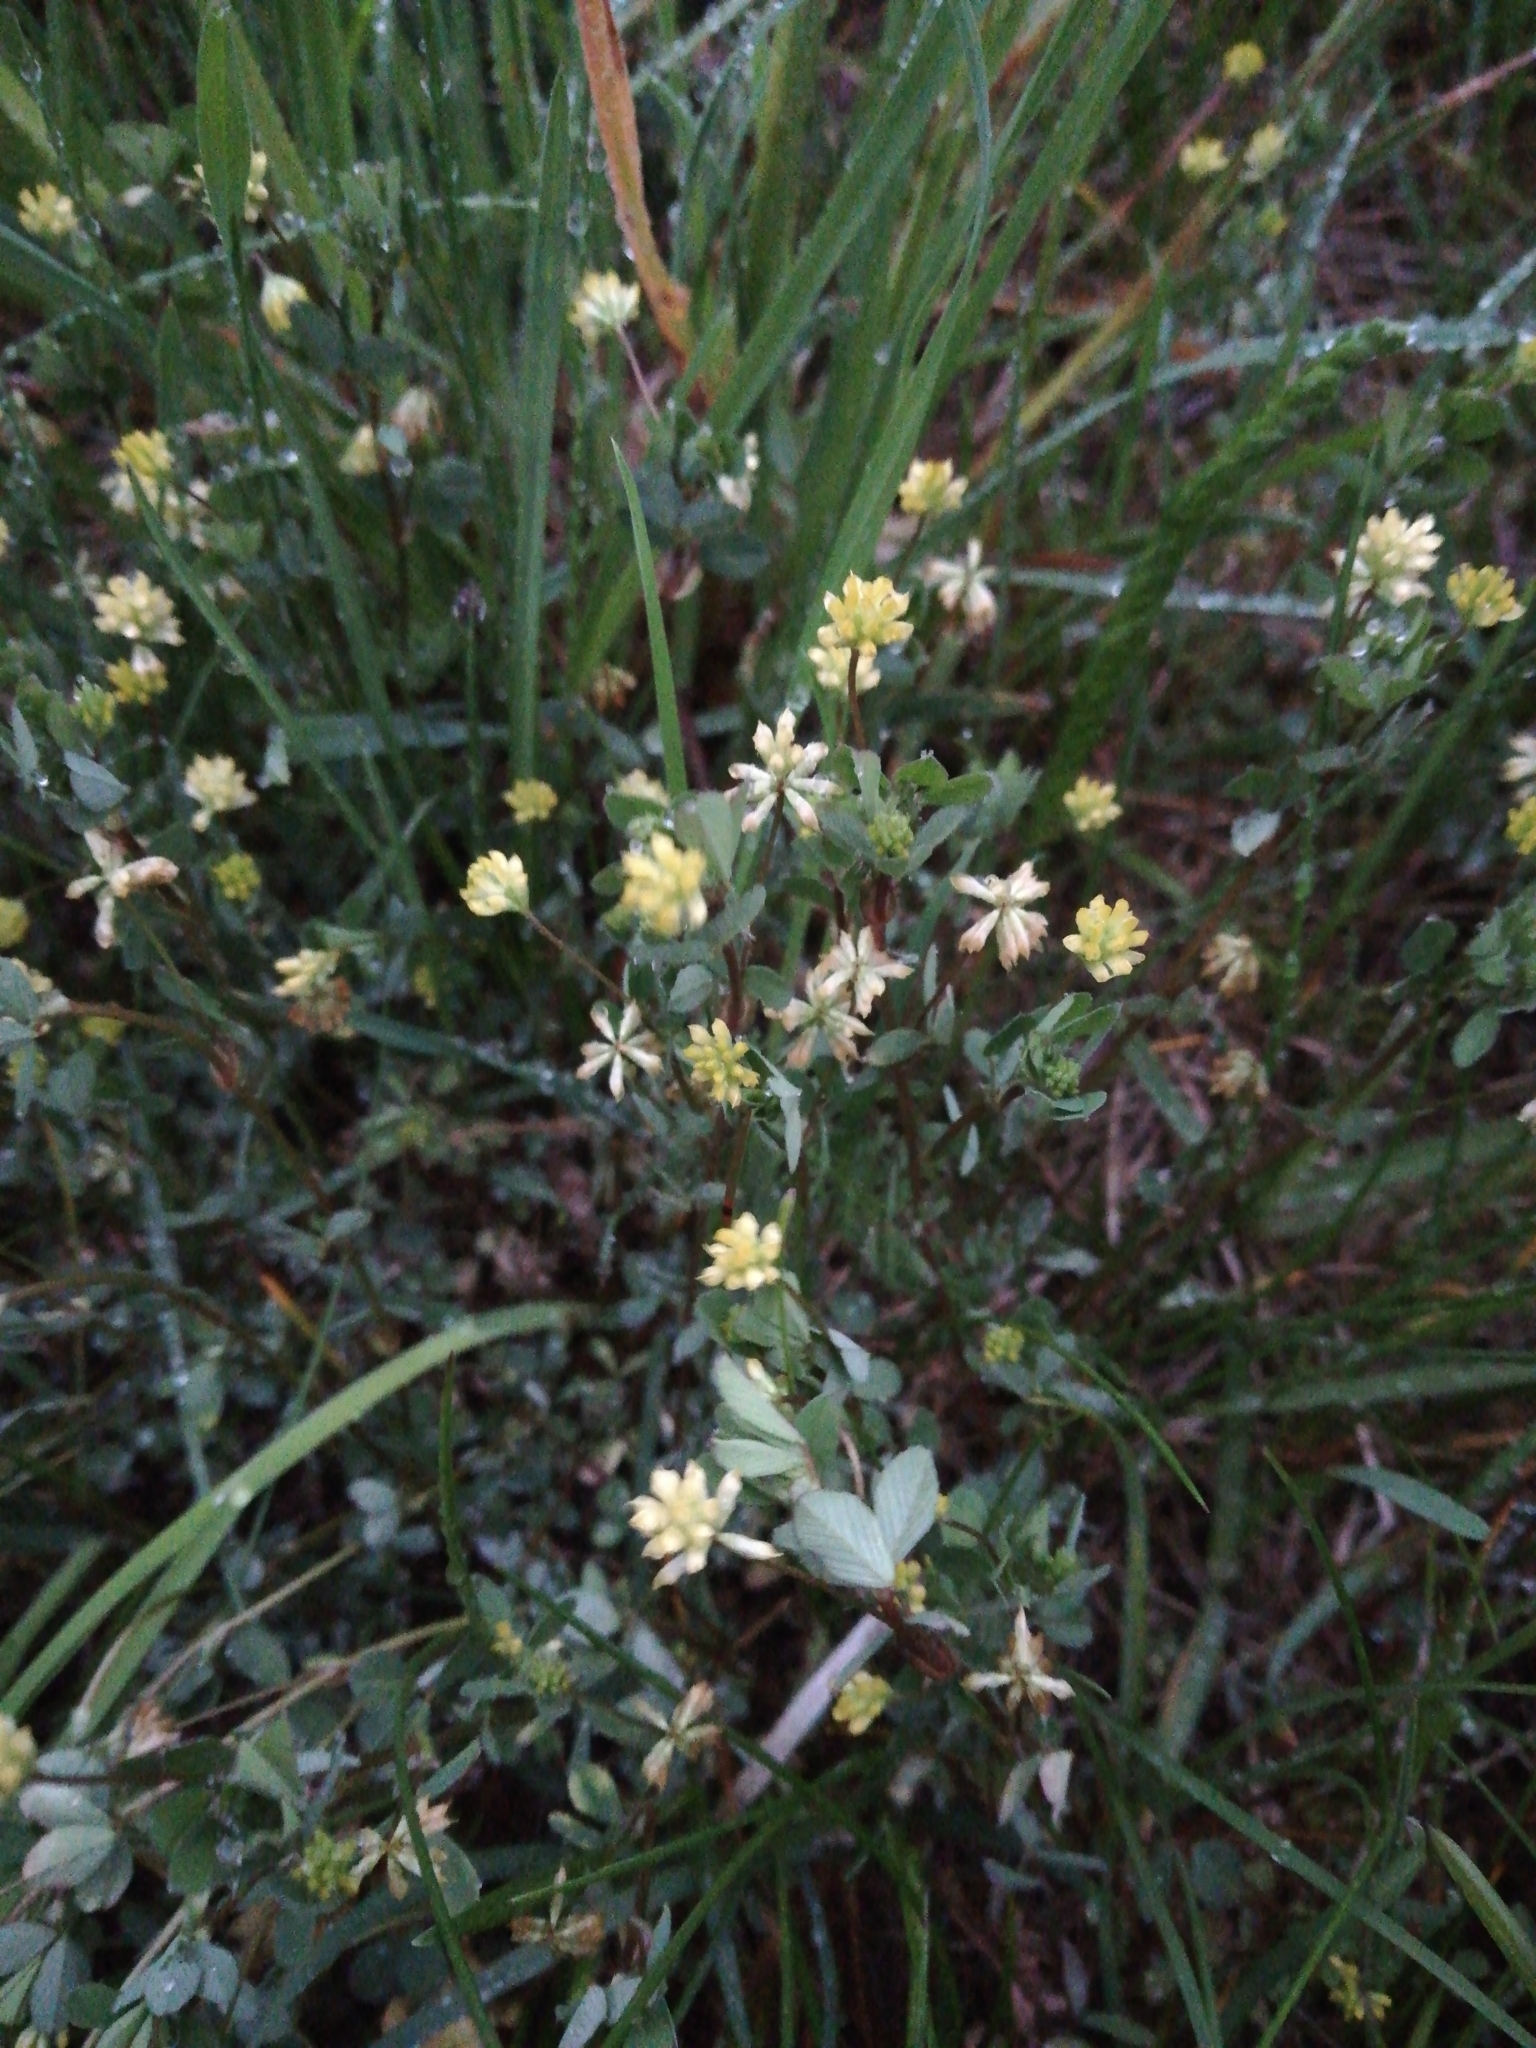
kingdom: Plantae
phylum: Tracheophyta
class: Magnoliopsida
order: Fabales
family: Fabaceae
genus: Trifolium
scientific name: Trifolium dubium
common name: Suckling clover
